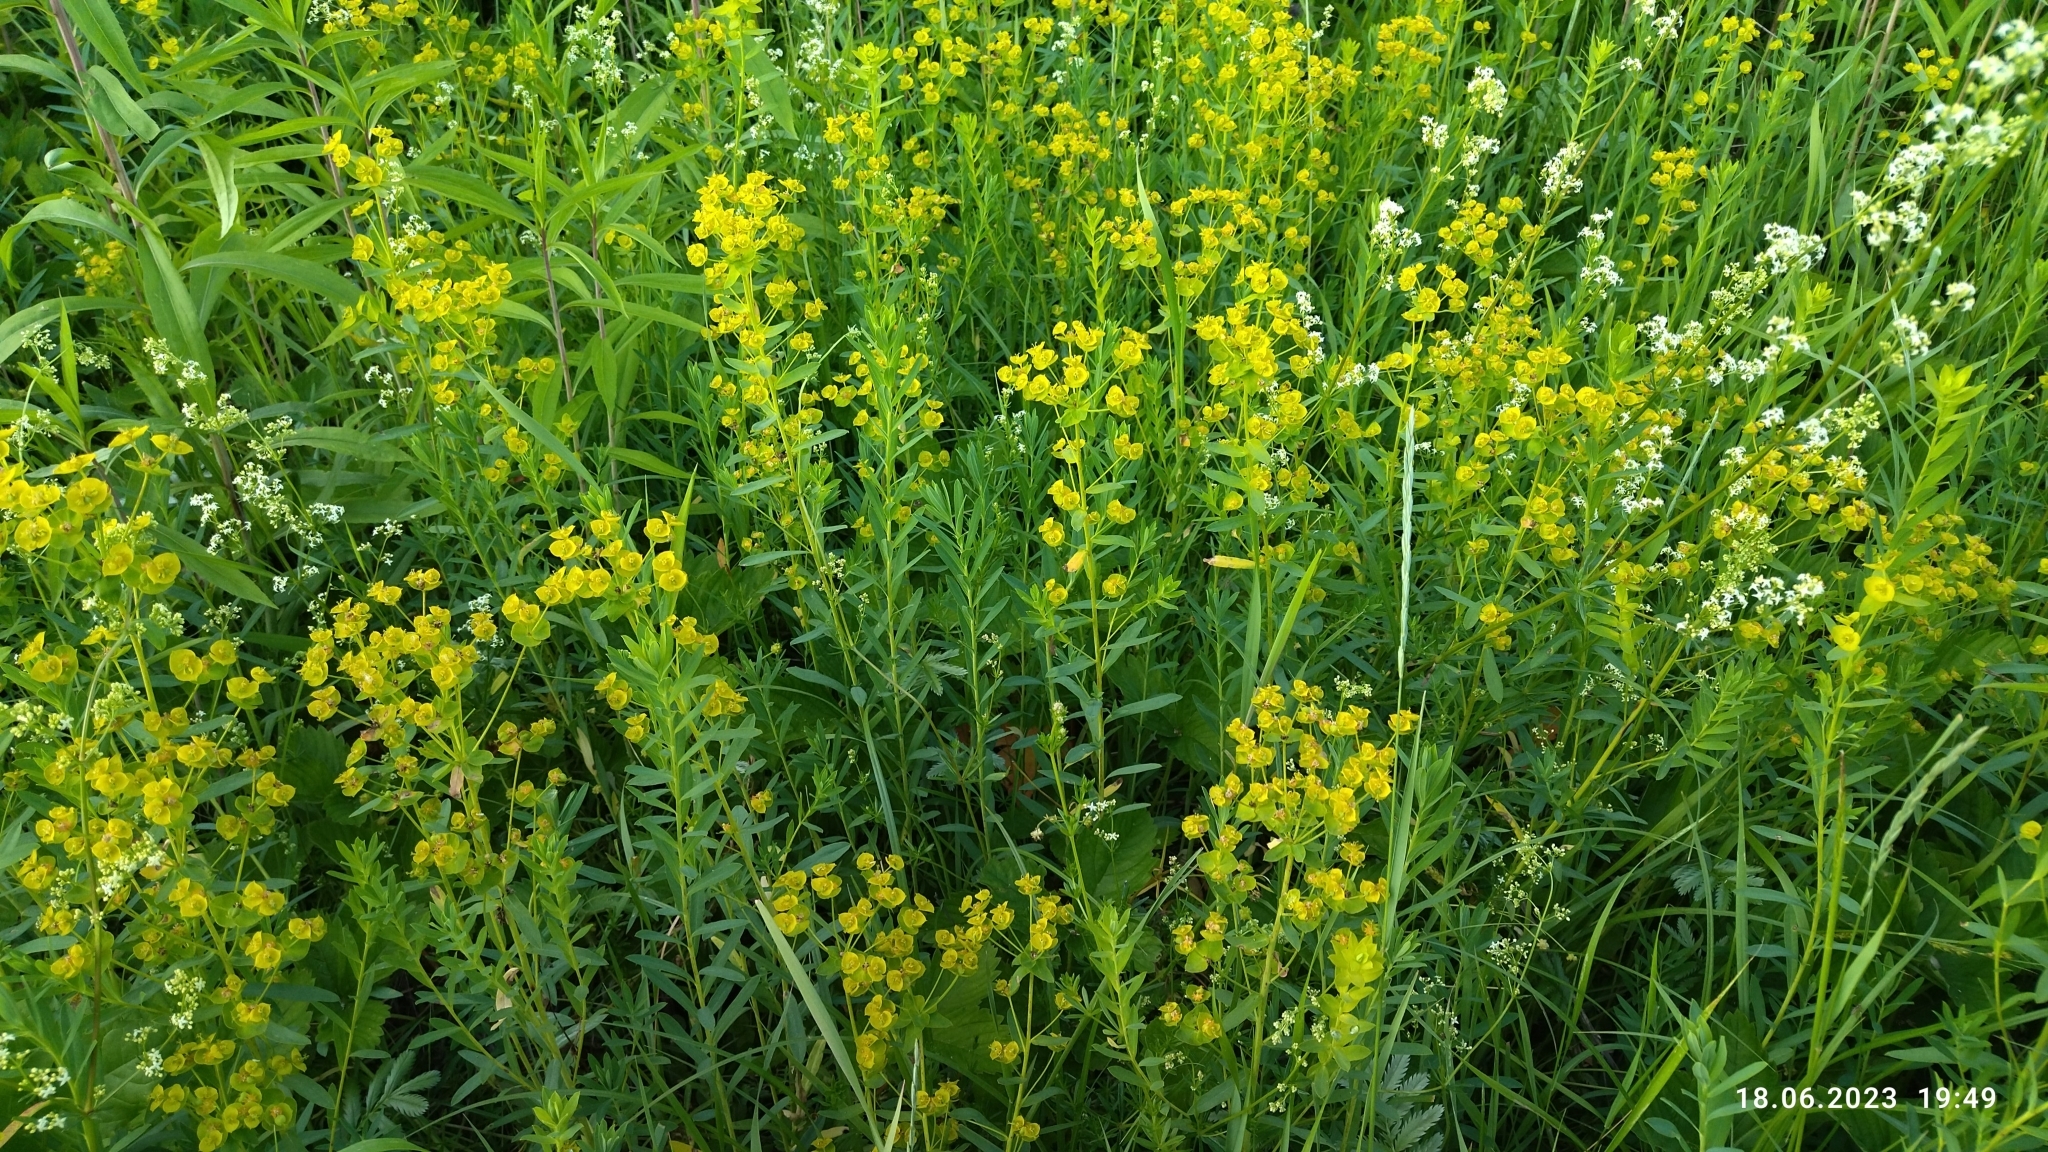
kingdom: Plantae
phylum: Tracheophyta
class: Magnoliopsida
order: Malpighiales
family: Euphorbiaceae
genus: Euphorbia
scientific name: Euphorbia virgata
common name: Leafy spurge
